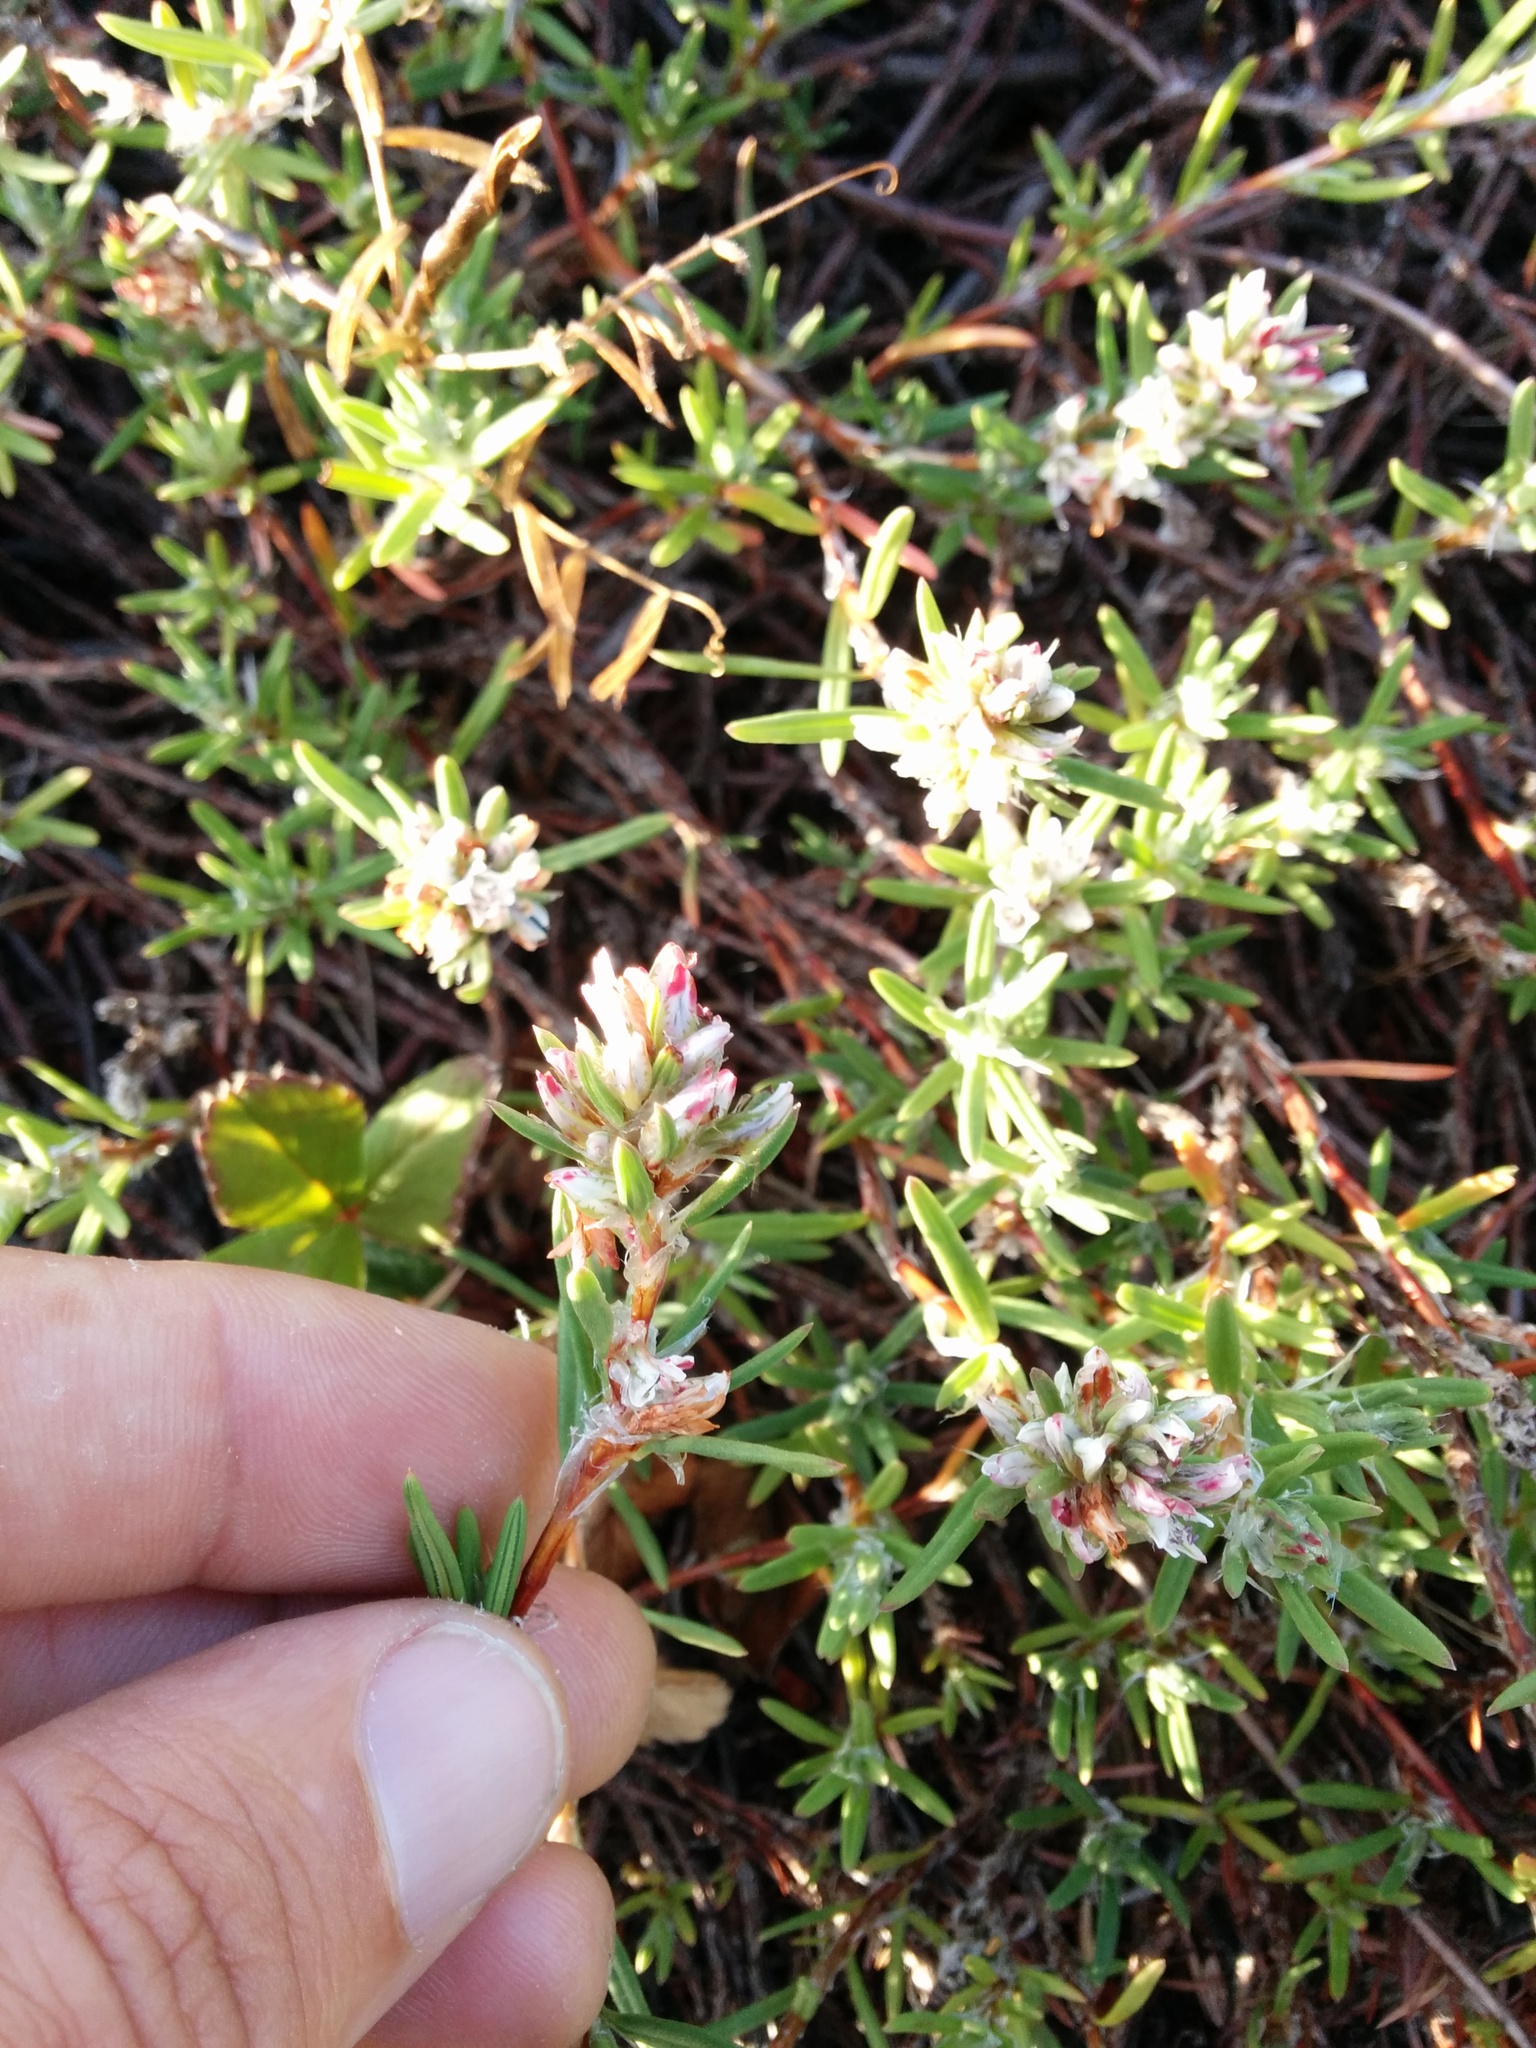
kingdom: Plantae
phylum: Tracheophyta
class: Magnoliopsida
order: Caryophyllales
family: Polygonaceae
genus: Polygonum
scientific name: Polygonum paronychia
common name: Dune knotweed
